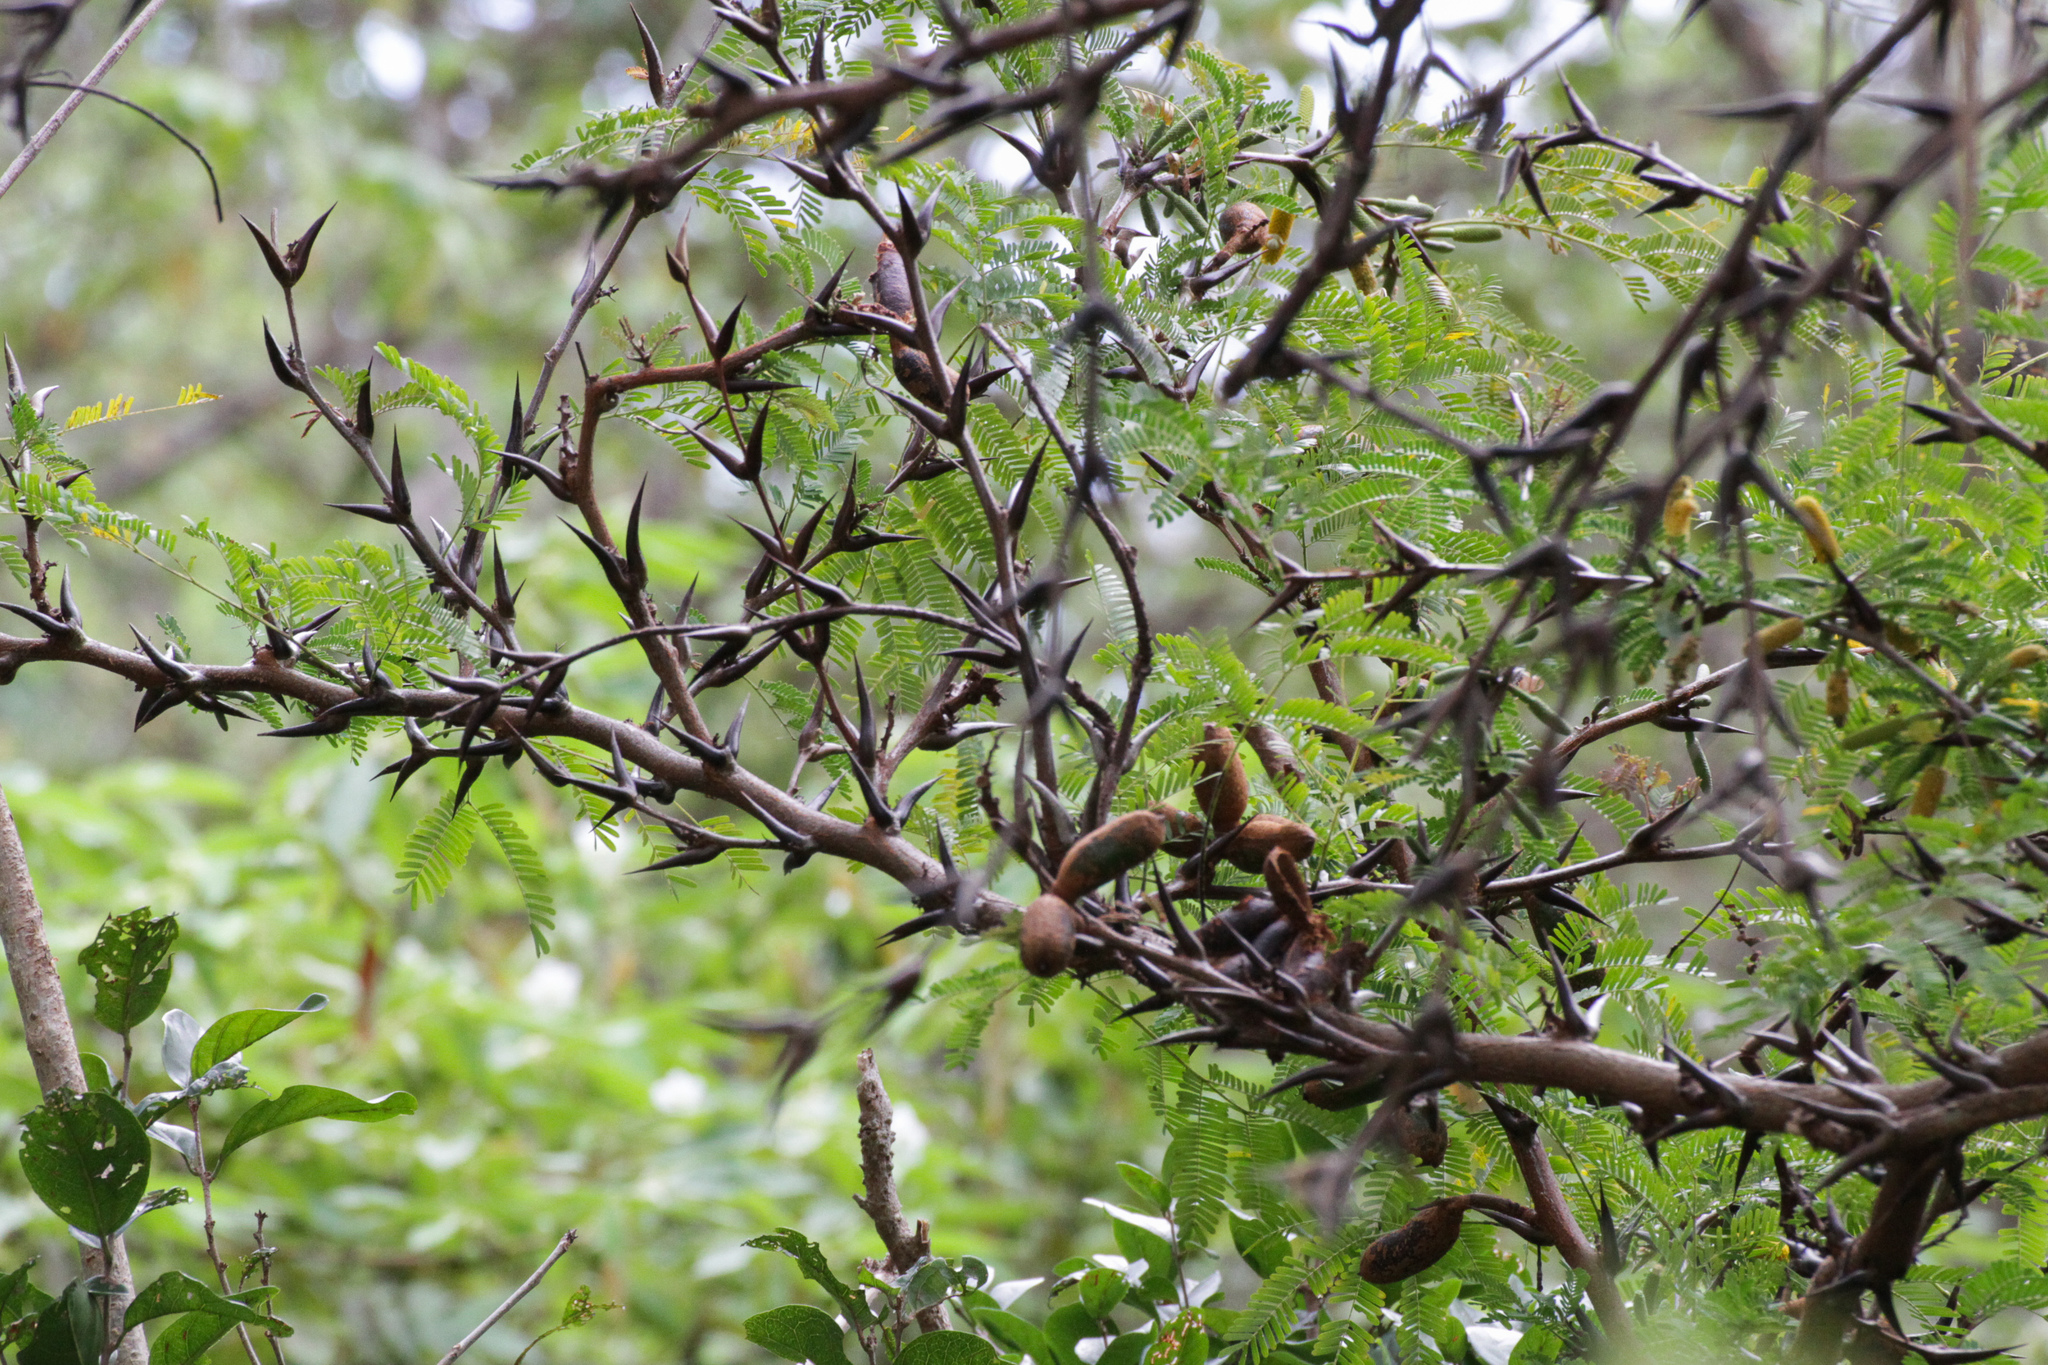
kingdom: Plantae
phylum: Tracheophyta
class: Magnoliopsida
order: Fabales
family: Fabaceae
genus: Vachellia
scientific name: Vachellia collinsii
